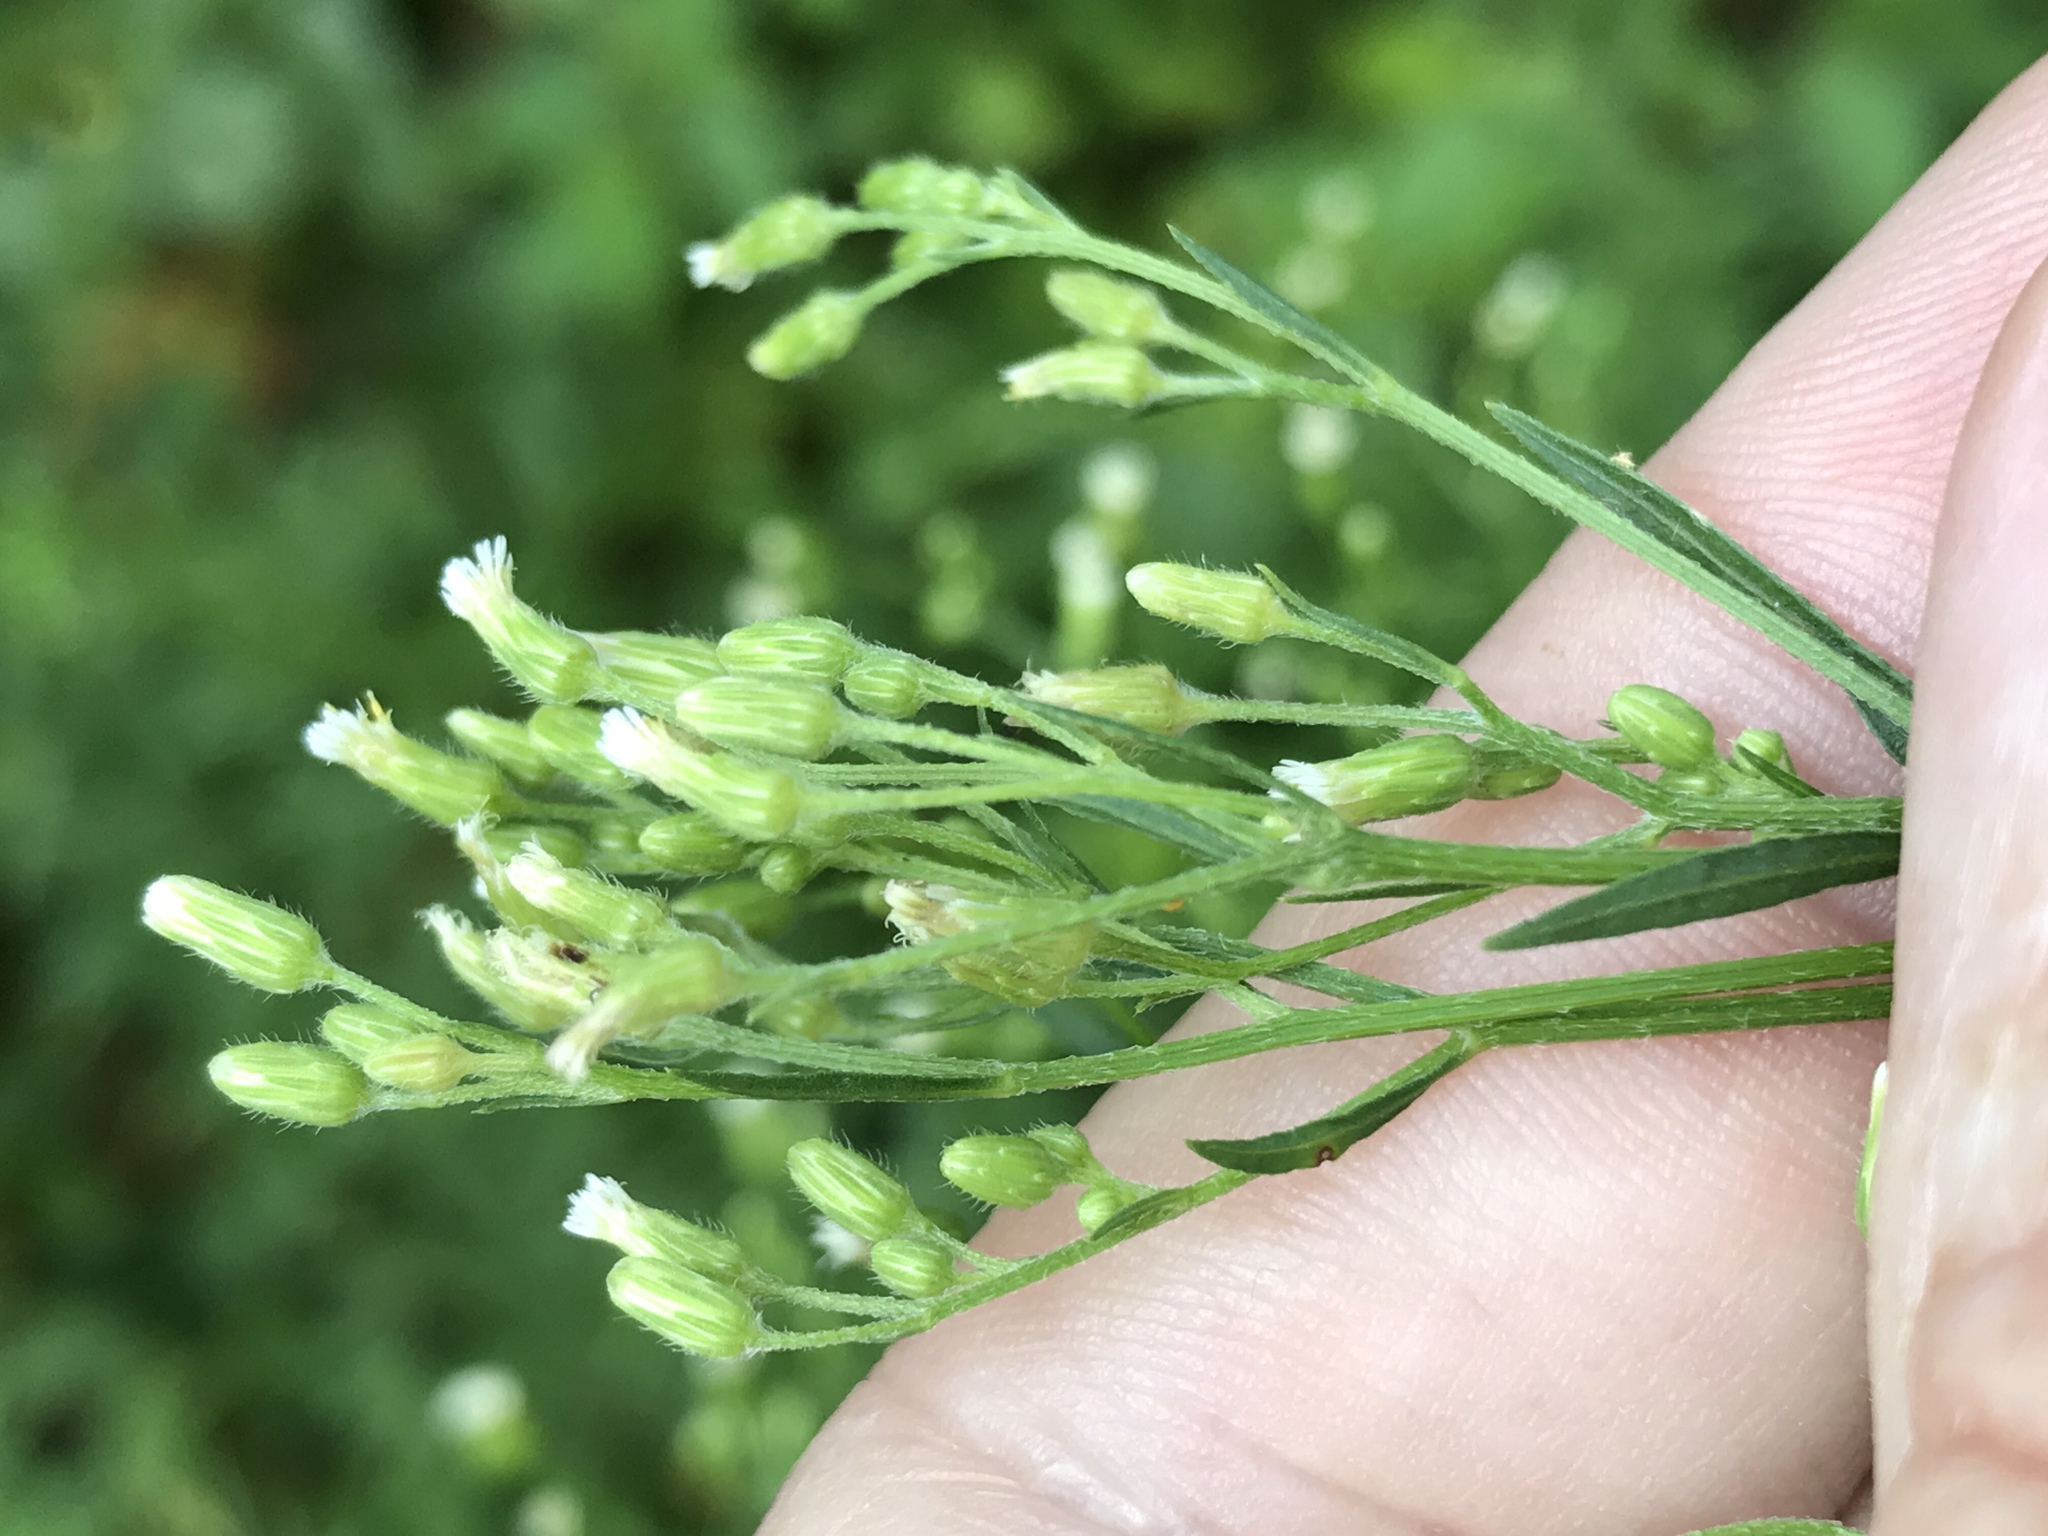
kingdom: Plantae
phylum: Tracheophyta
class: Magnoliopsida
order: Asterales
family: Asteraceae
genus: Erigeron
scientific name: Erigeron canadensis
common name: Canadian fleabane
